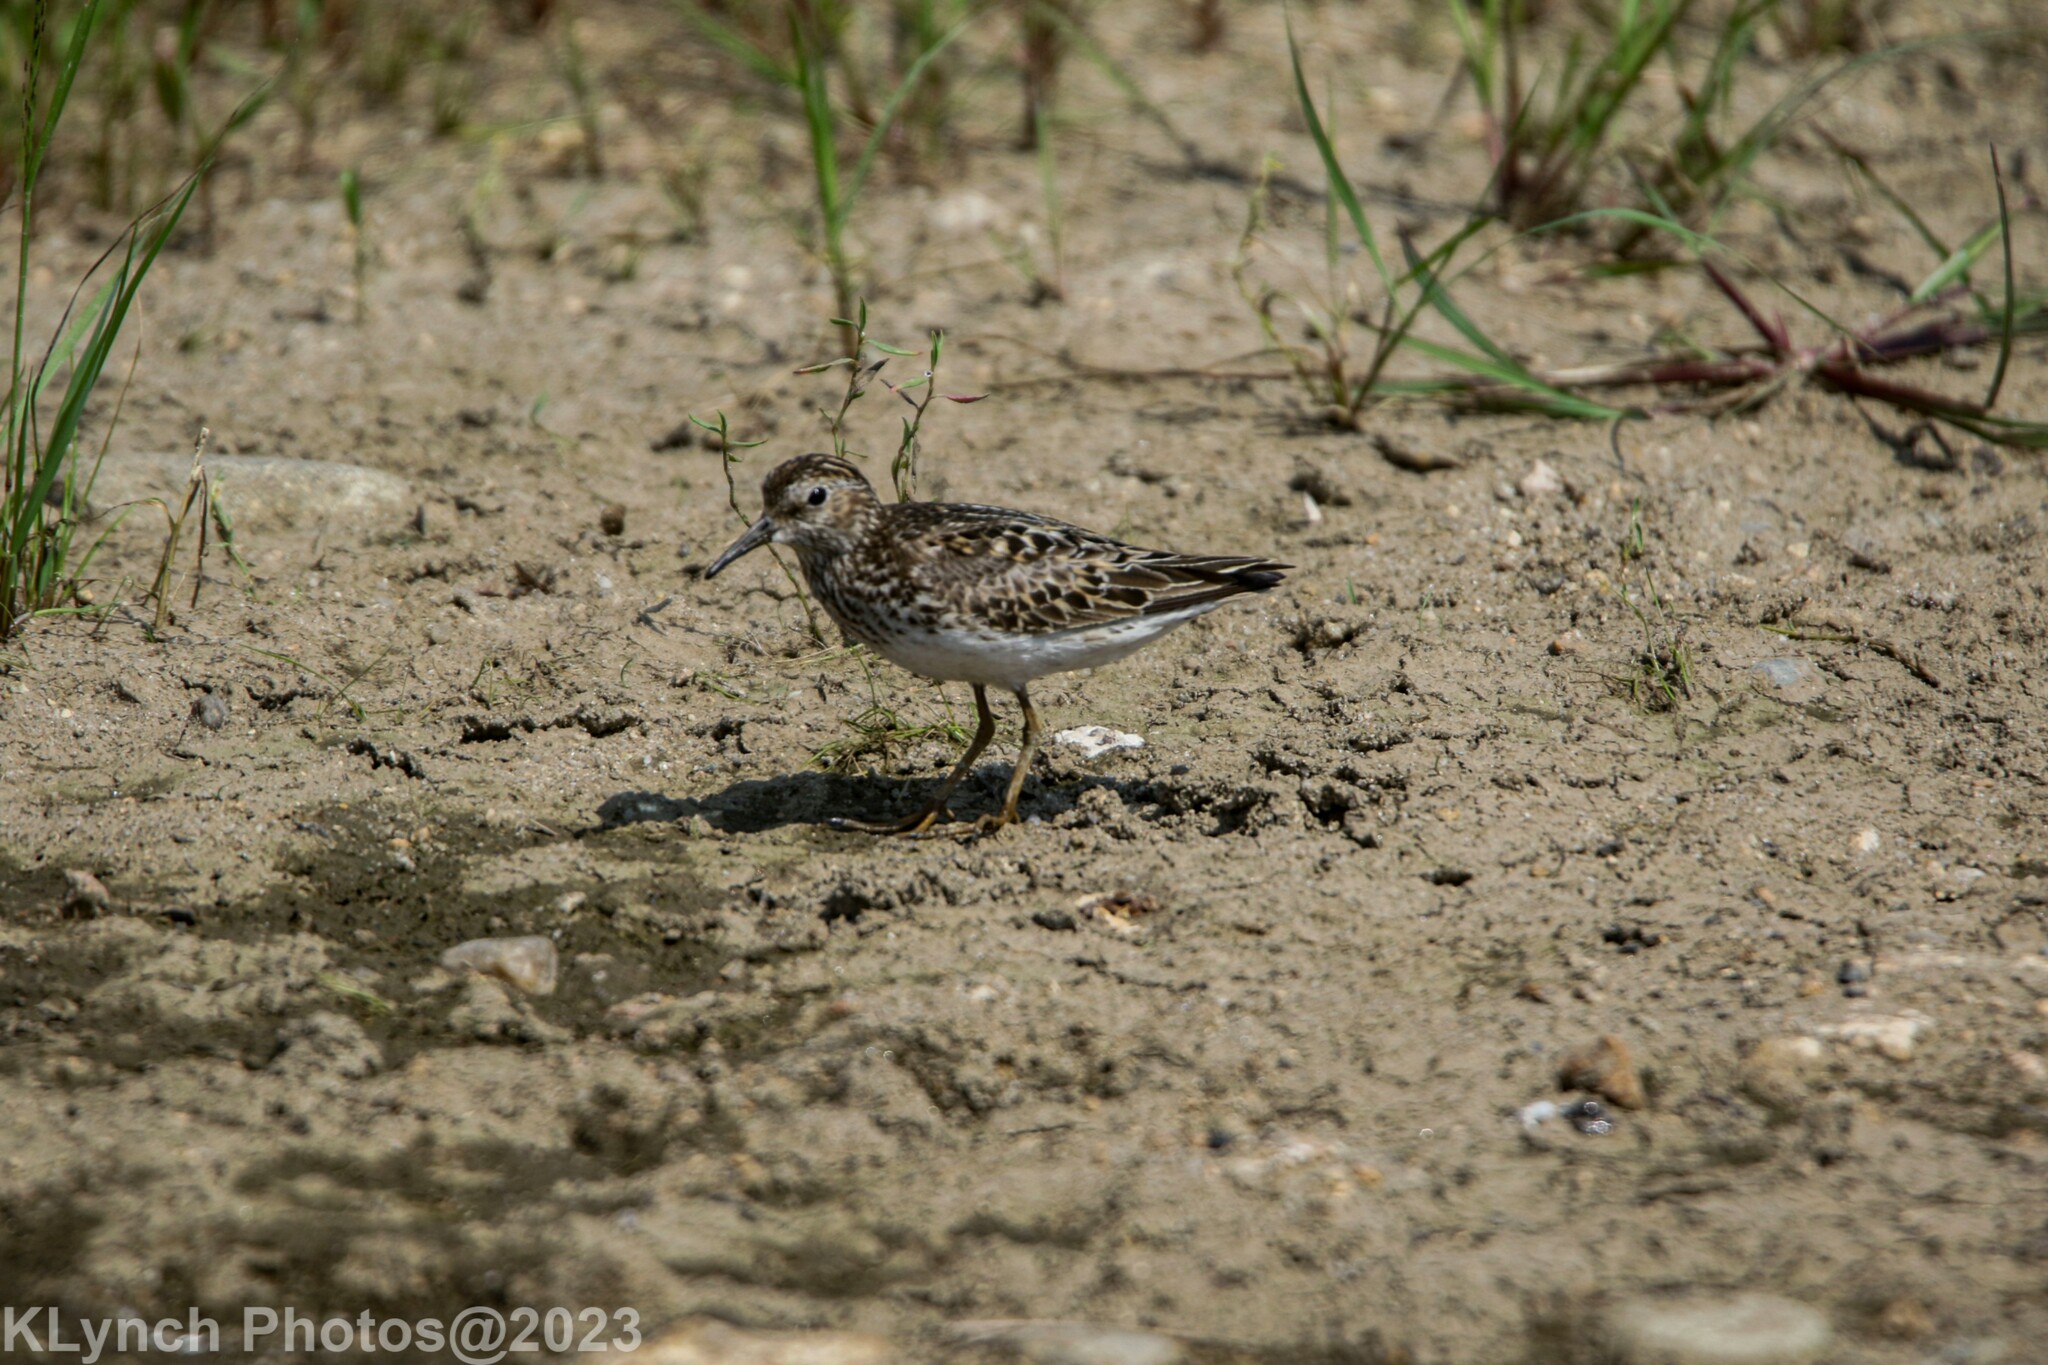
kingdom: Animalia
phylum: Chordata
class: Aves
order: Charadriiformes
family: Scolopacidae
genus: Calidris
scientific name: Calidris minutilla
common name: Least sandpiper
